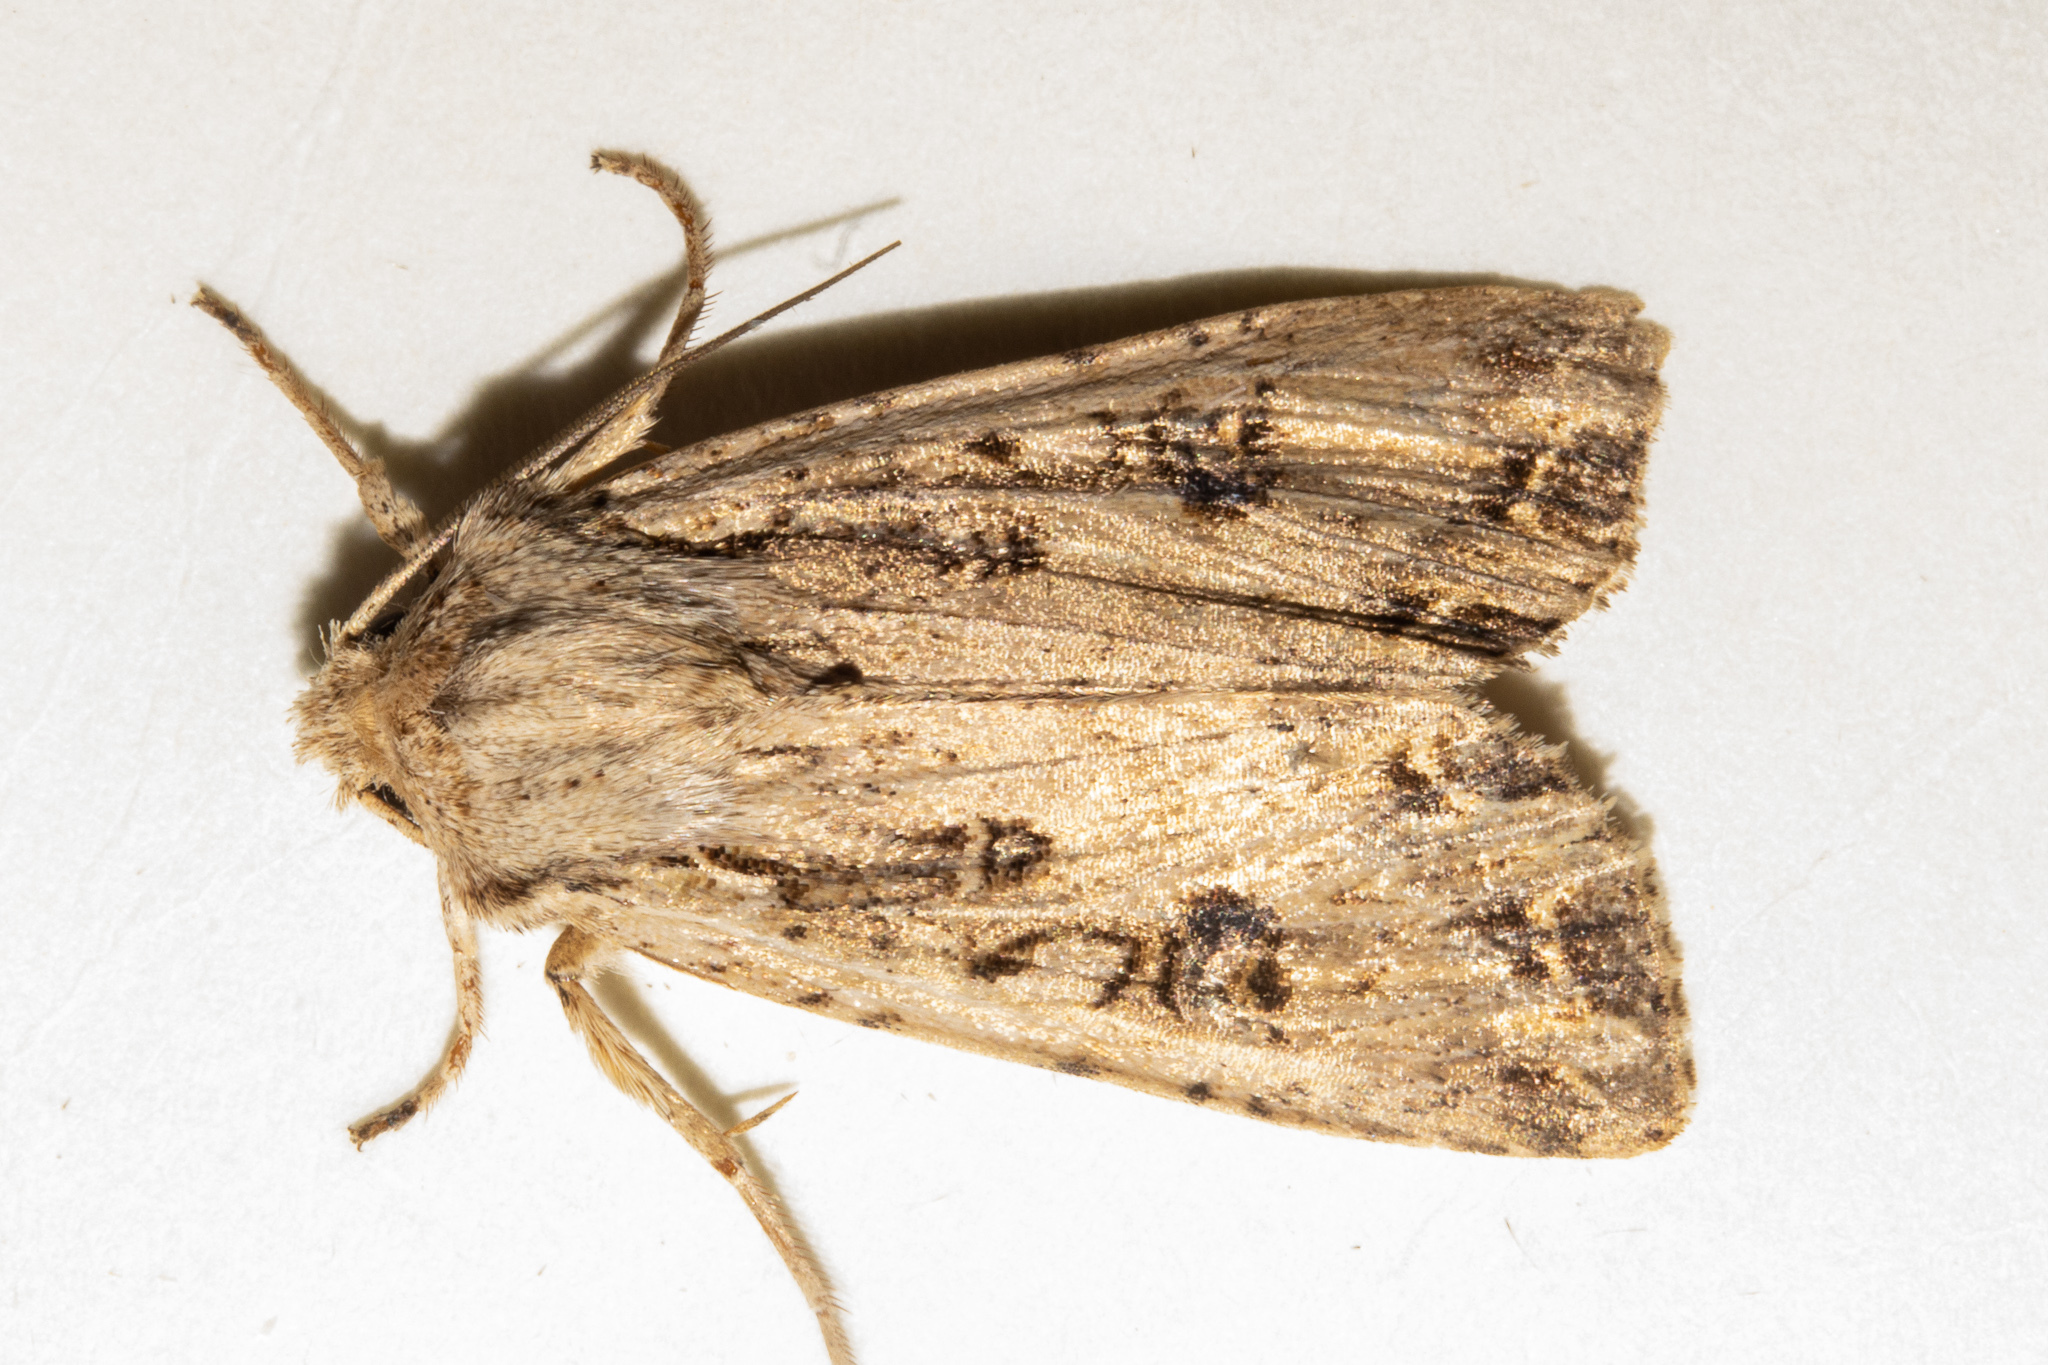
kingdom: Animalia
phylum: Arthropoda
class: Insecta
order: Lepidoptera
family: Noctuidae
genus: Ichneutica
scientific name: Ichneutica lignana
